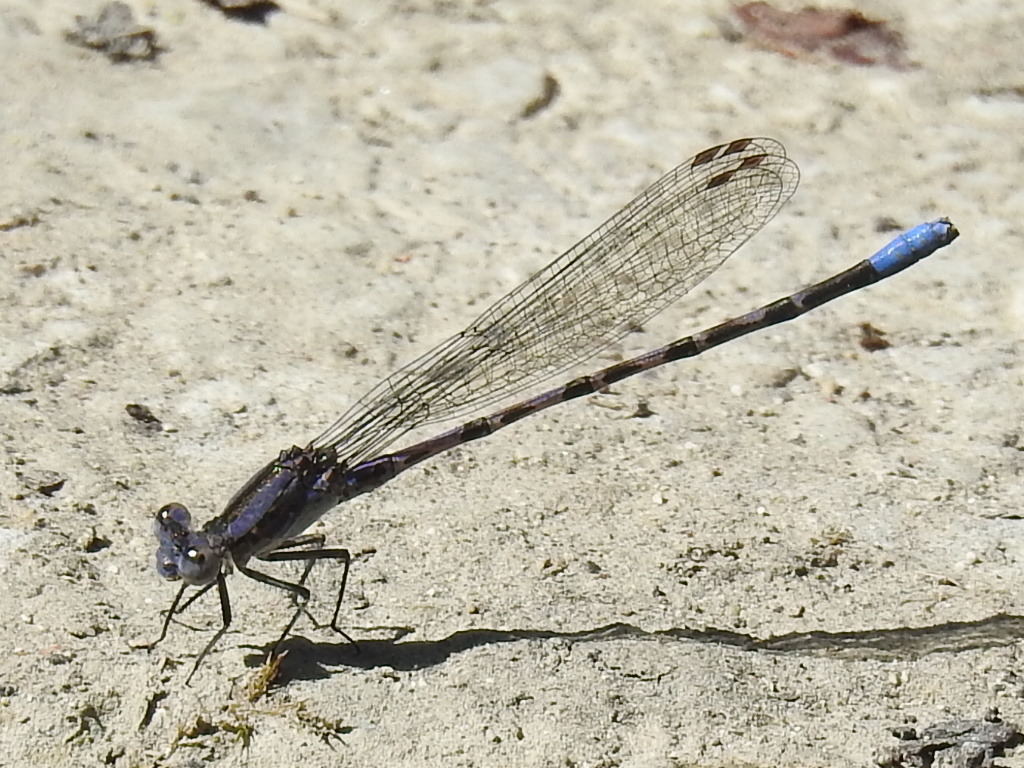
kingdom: Animalia
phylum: Arthropoda
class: Insecta
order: Odonata
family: Coenagrionidae
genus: Argia
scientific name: Argia immunda
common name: Kiowa dancer
